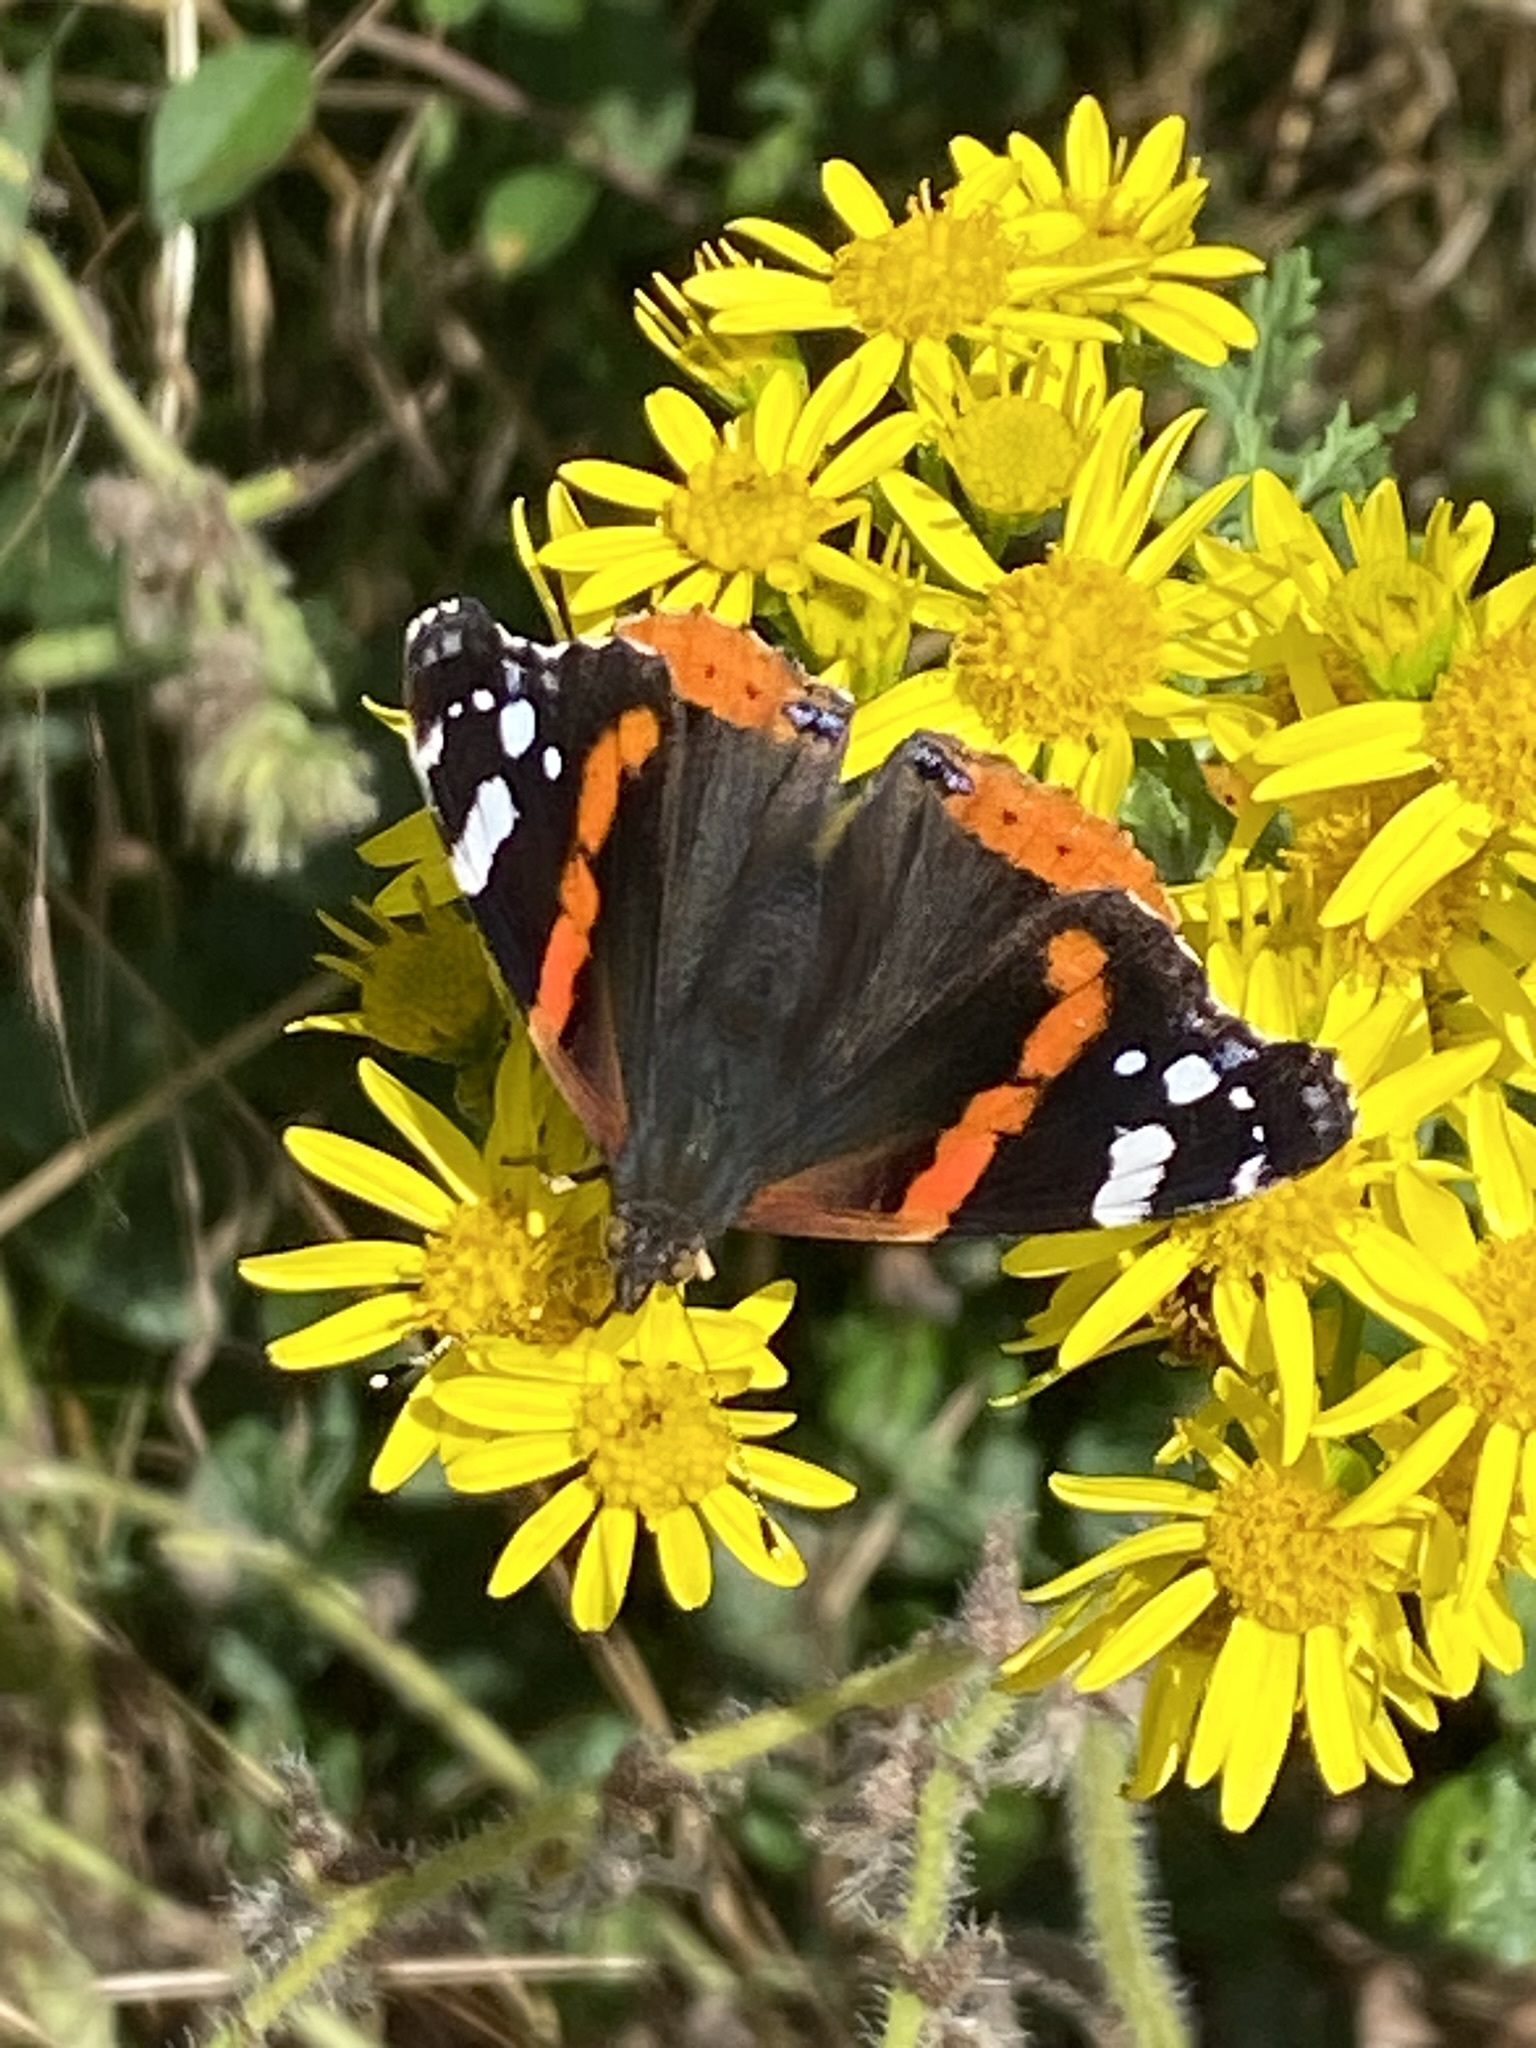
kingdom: Animalia
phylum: Arthropoda
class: Insecta
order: Lepidoptera
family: Nymphalidae
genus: Vanessa
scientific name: Vanessa atalanta
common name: Red admiral
